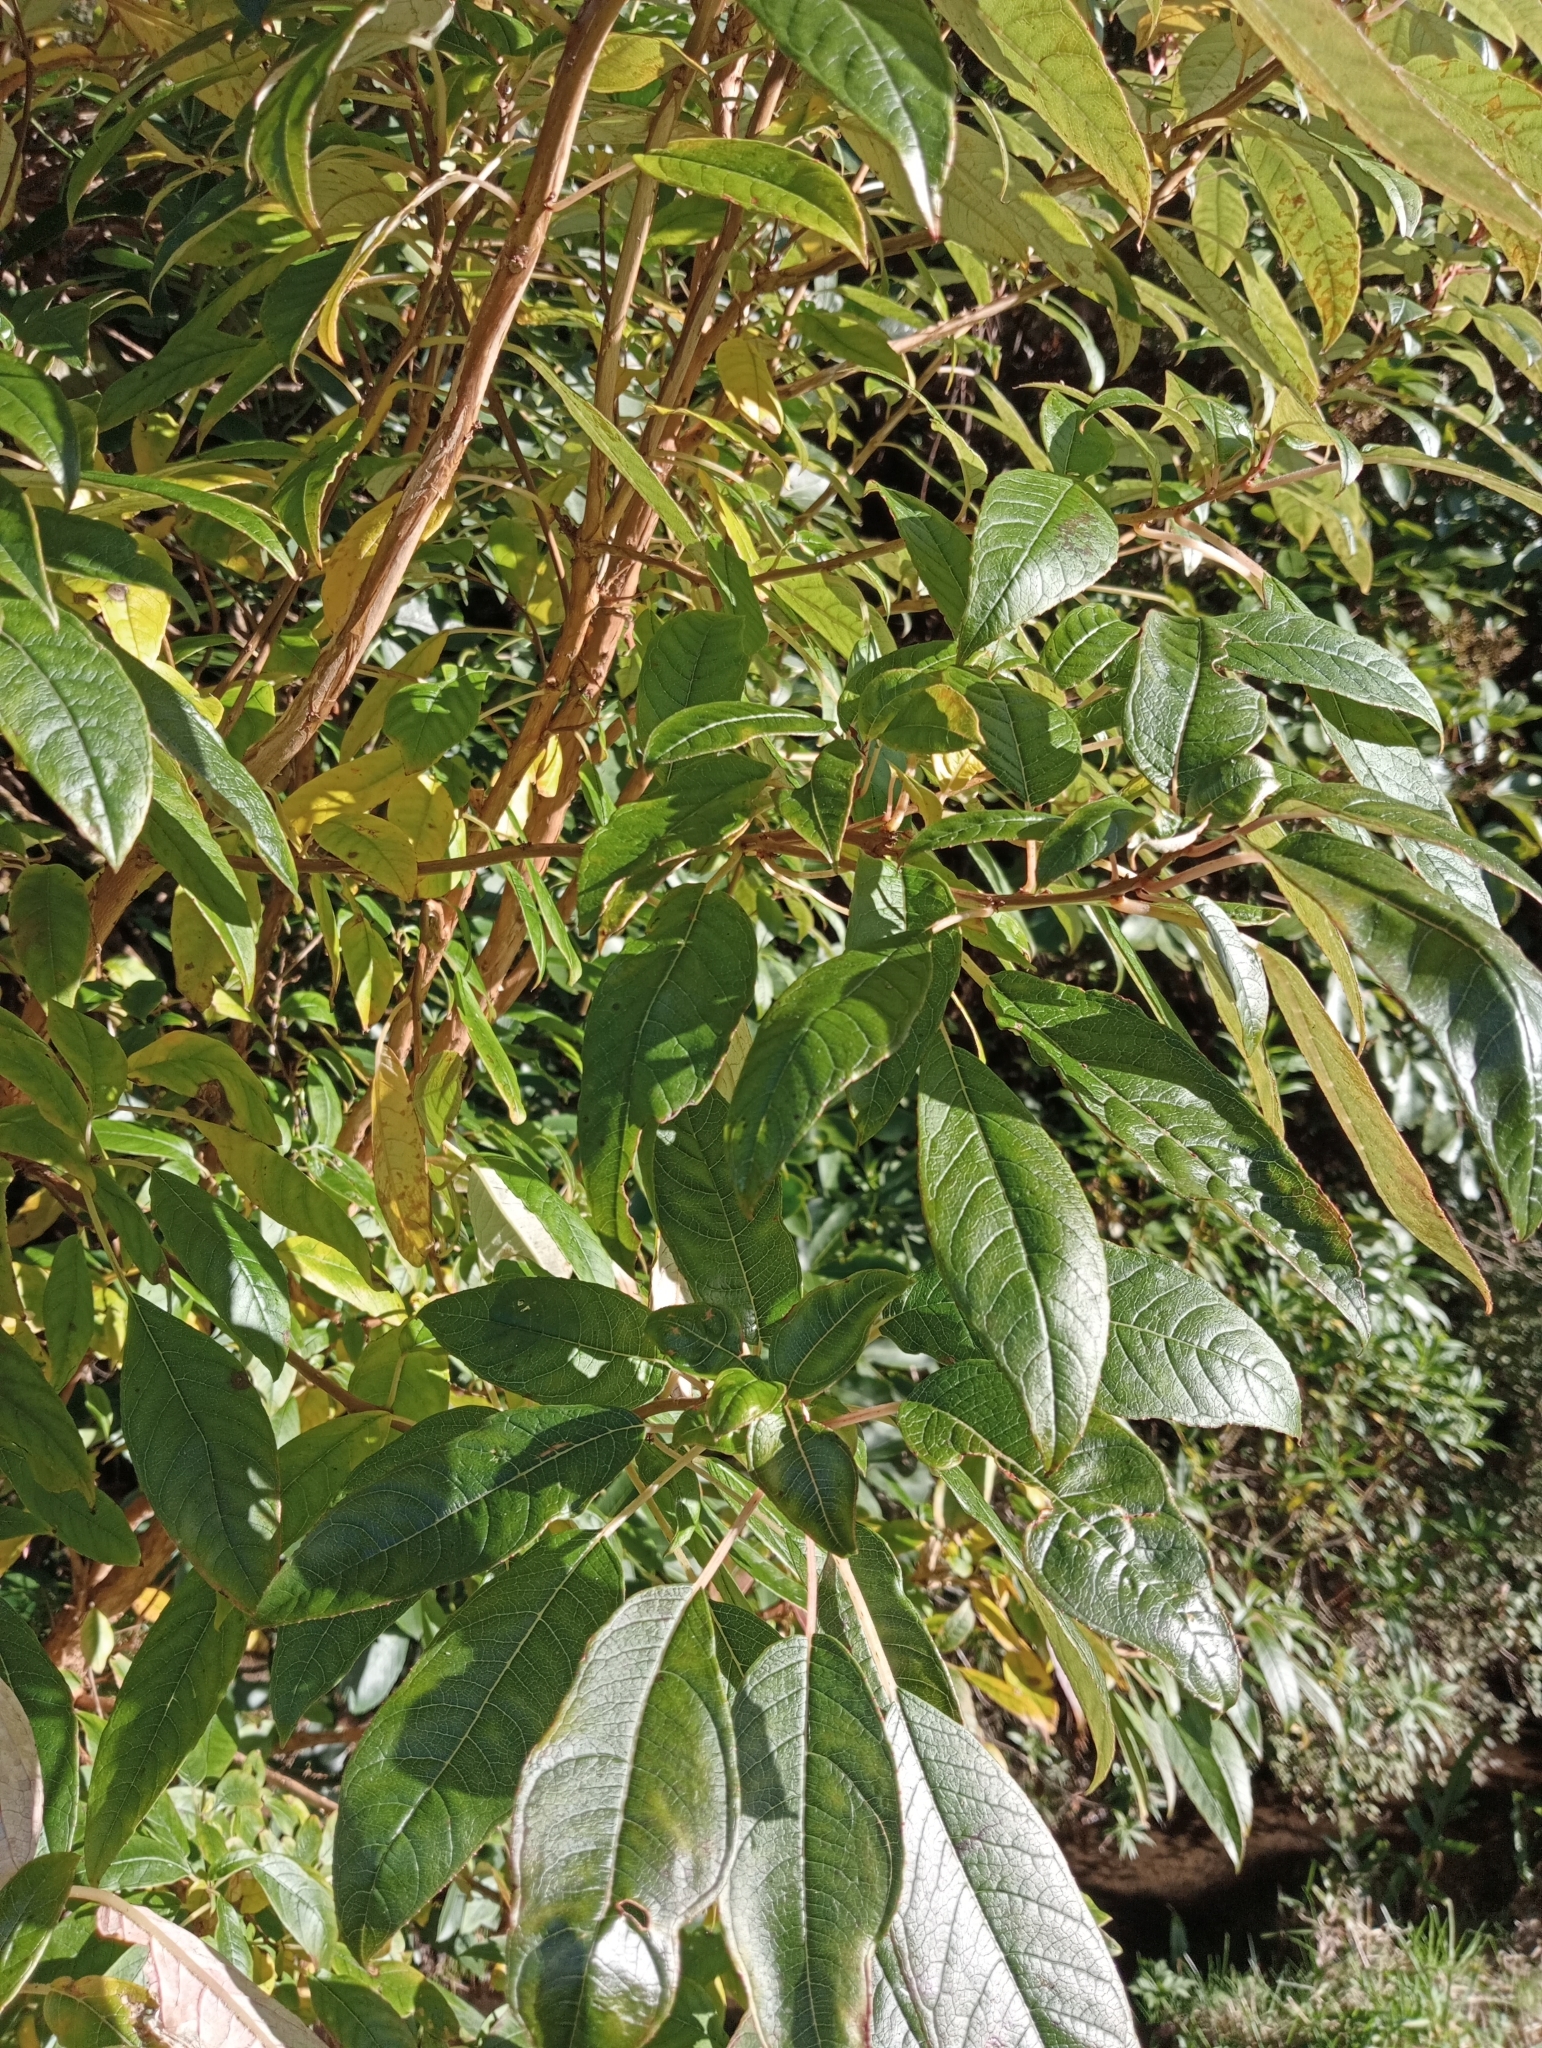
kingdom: Plantae
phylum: Tracheophyta
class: Magnoliopsida
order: Myrtales
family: Onagraceae
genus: Fuchsia
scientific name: Fuchsia excorticata
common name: Tree fuchsia
